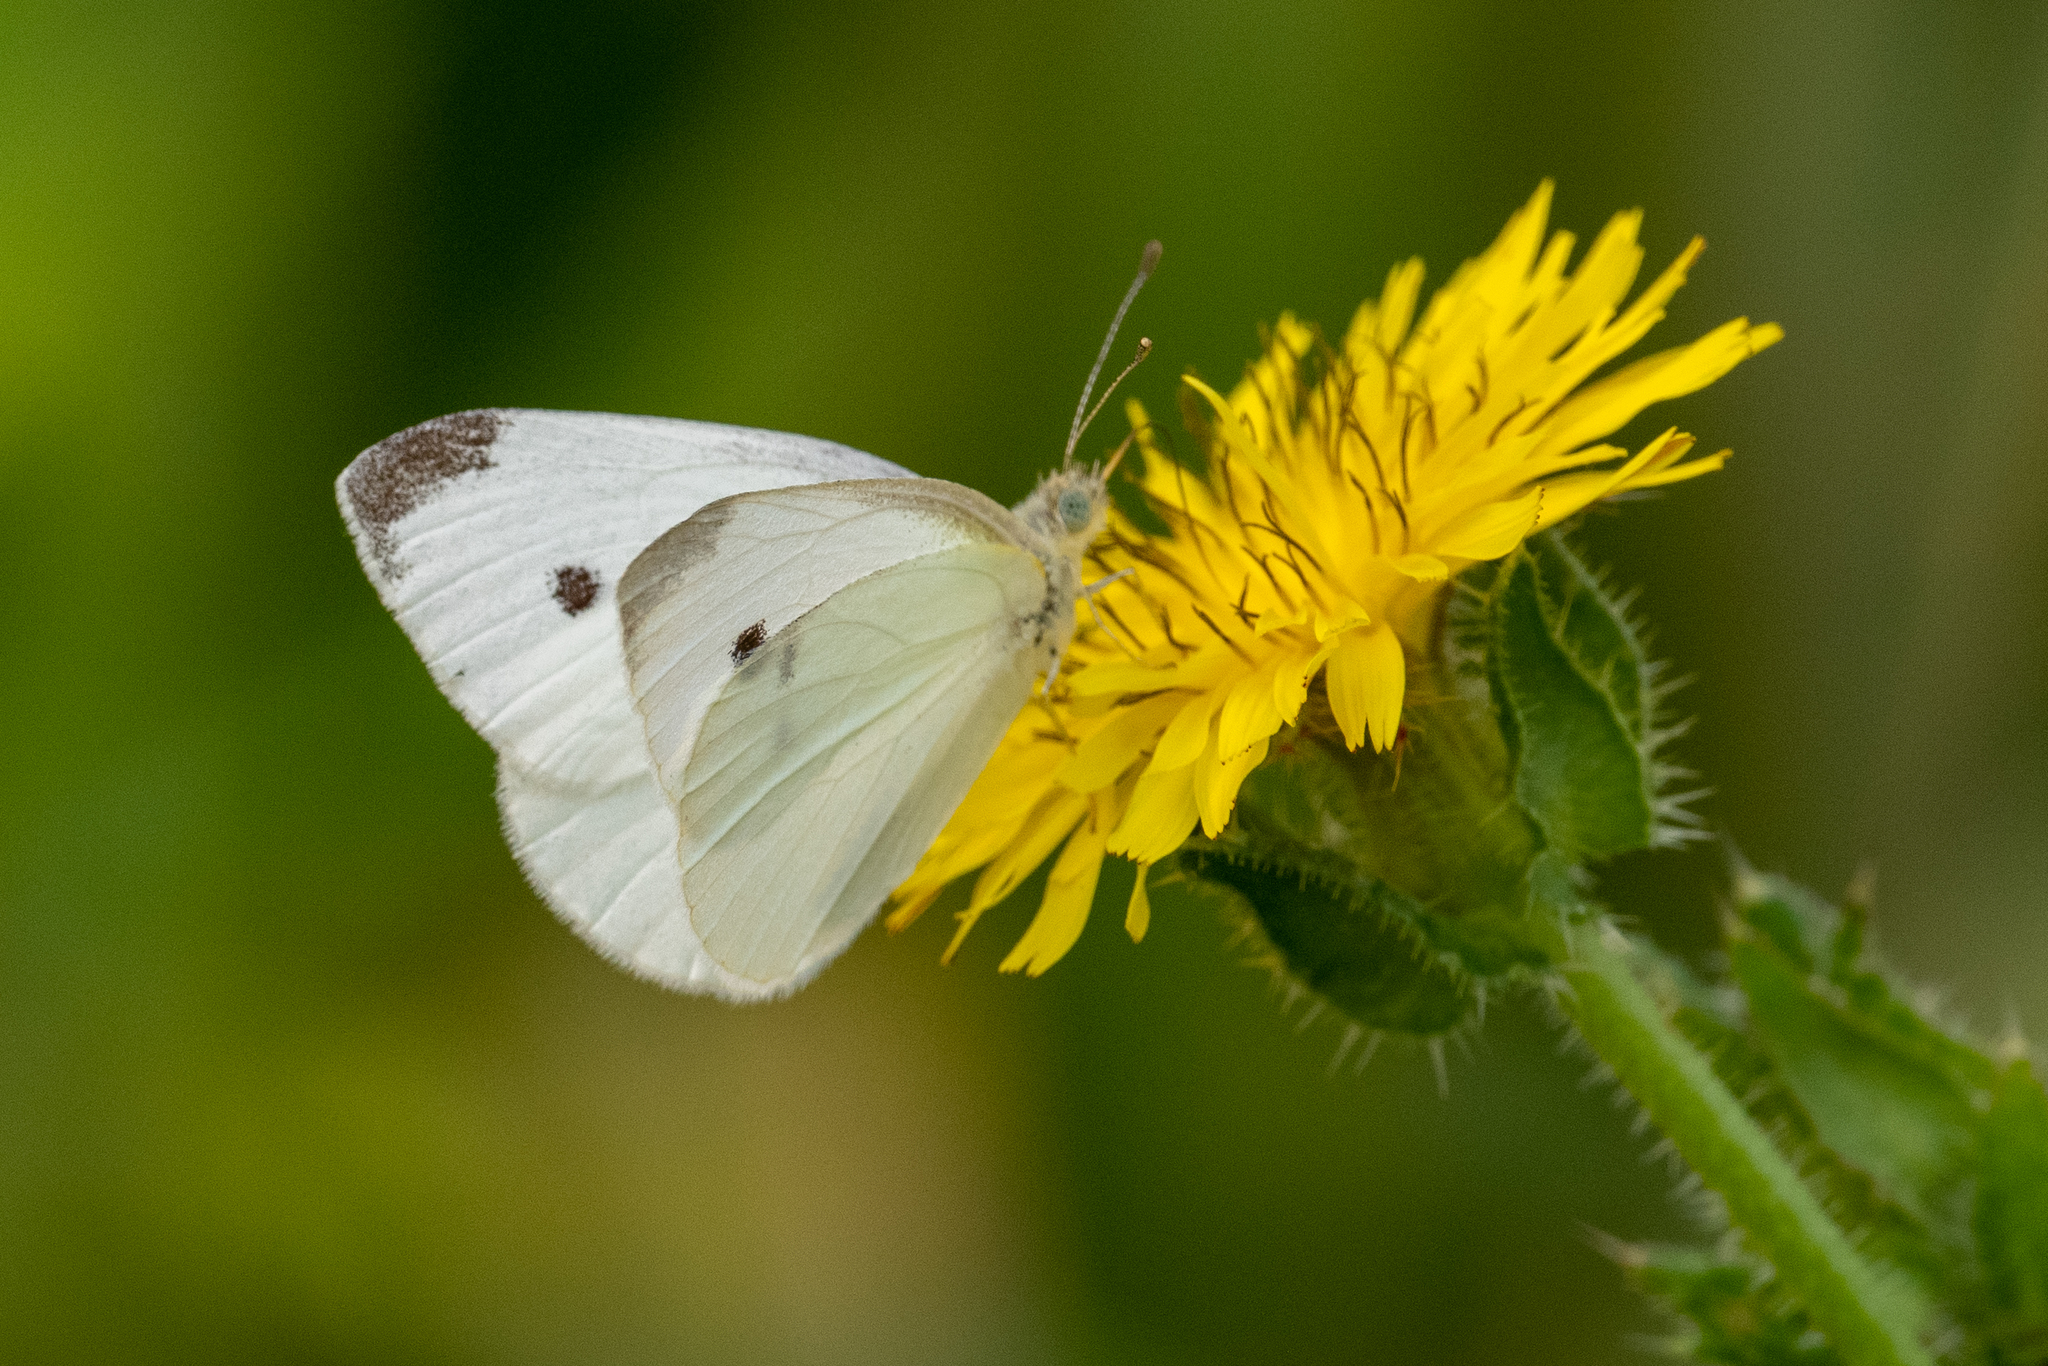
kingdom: Animalia
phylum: Arthropoda
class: Insecta
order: Lepidoptera
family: Pieridae
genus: Pieris
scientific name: Pieris rapae
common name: Small white
